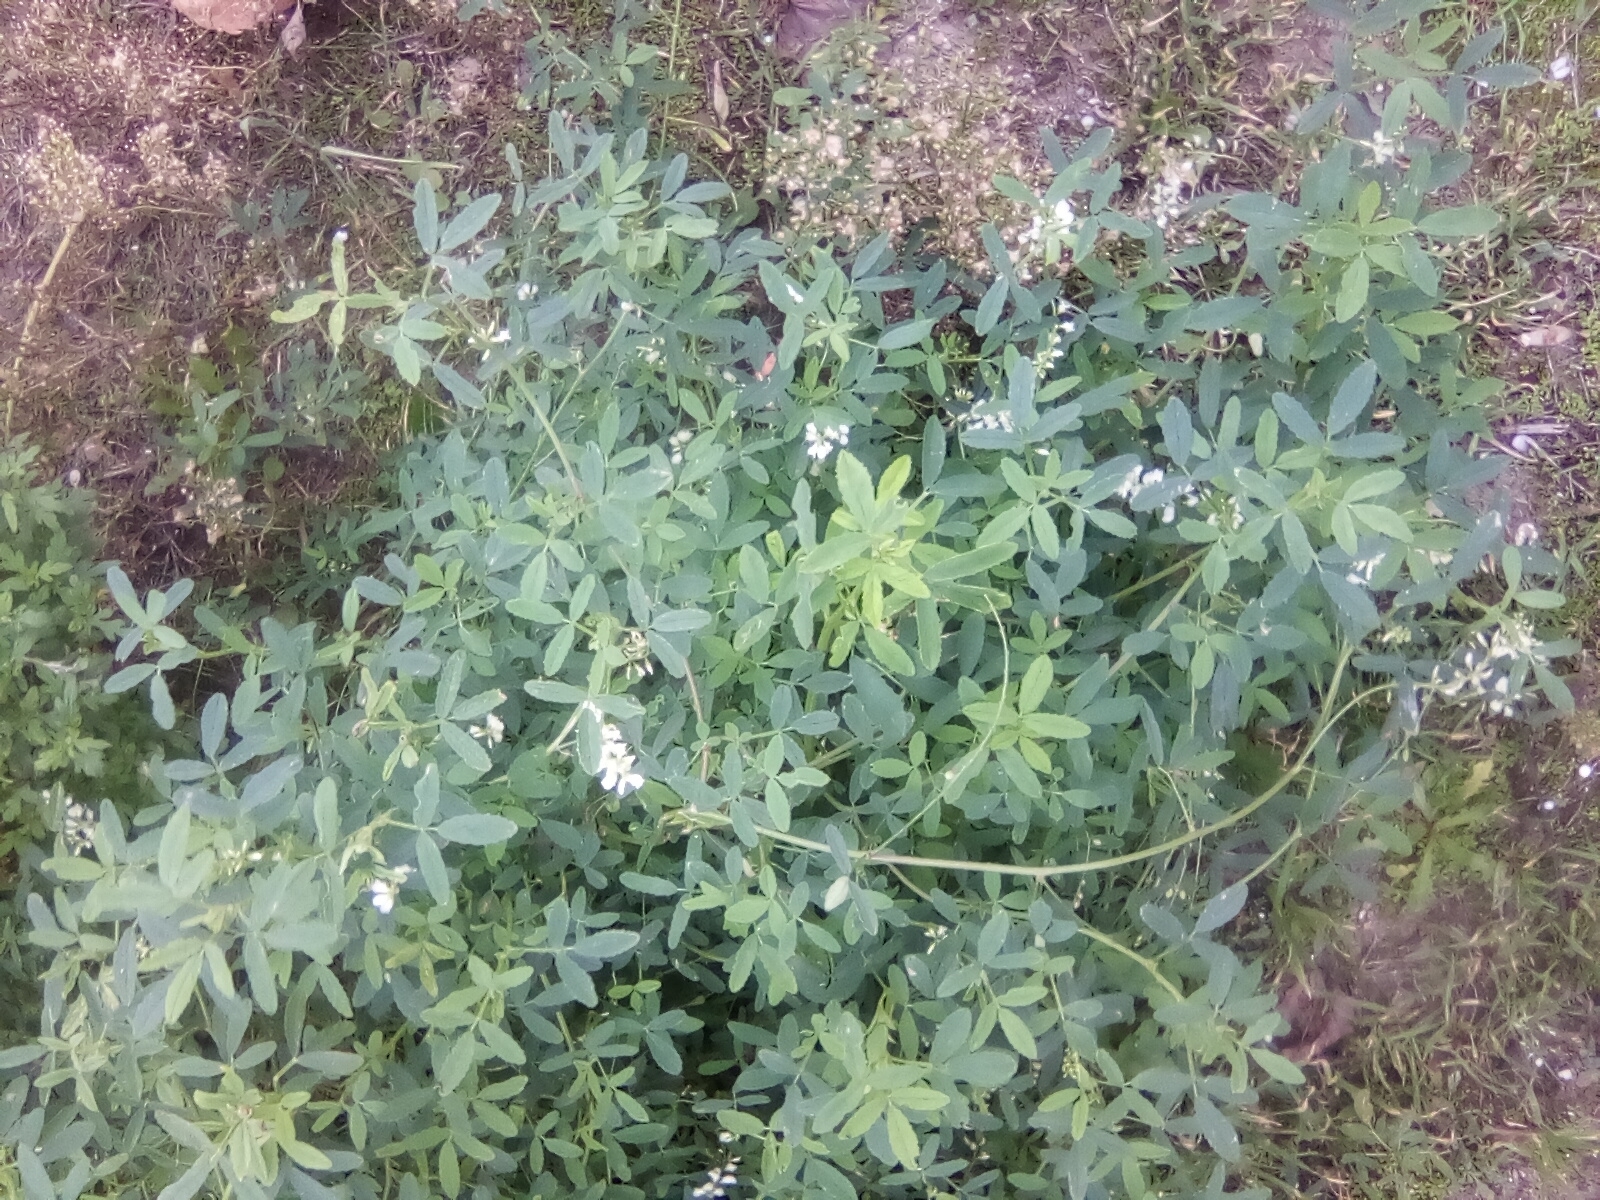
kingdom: Plantae
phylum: Tracheophyta
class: Magnoliopsida
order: Fabales
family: Fabaceae
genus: Melilotus
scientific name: Melilotus albus
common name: White melilot
